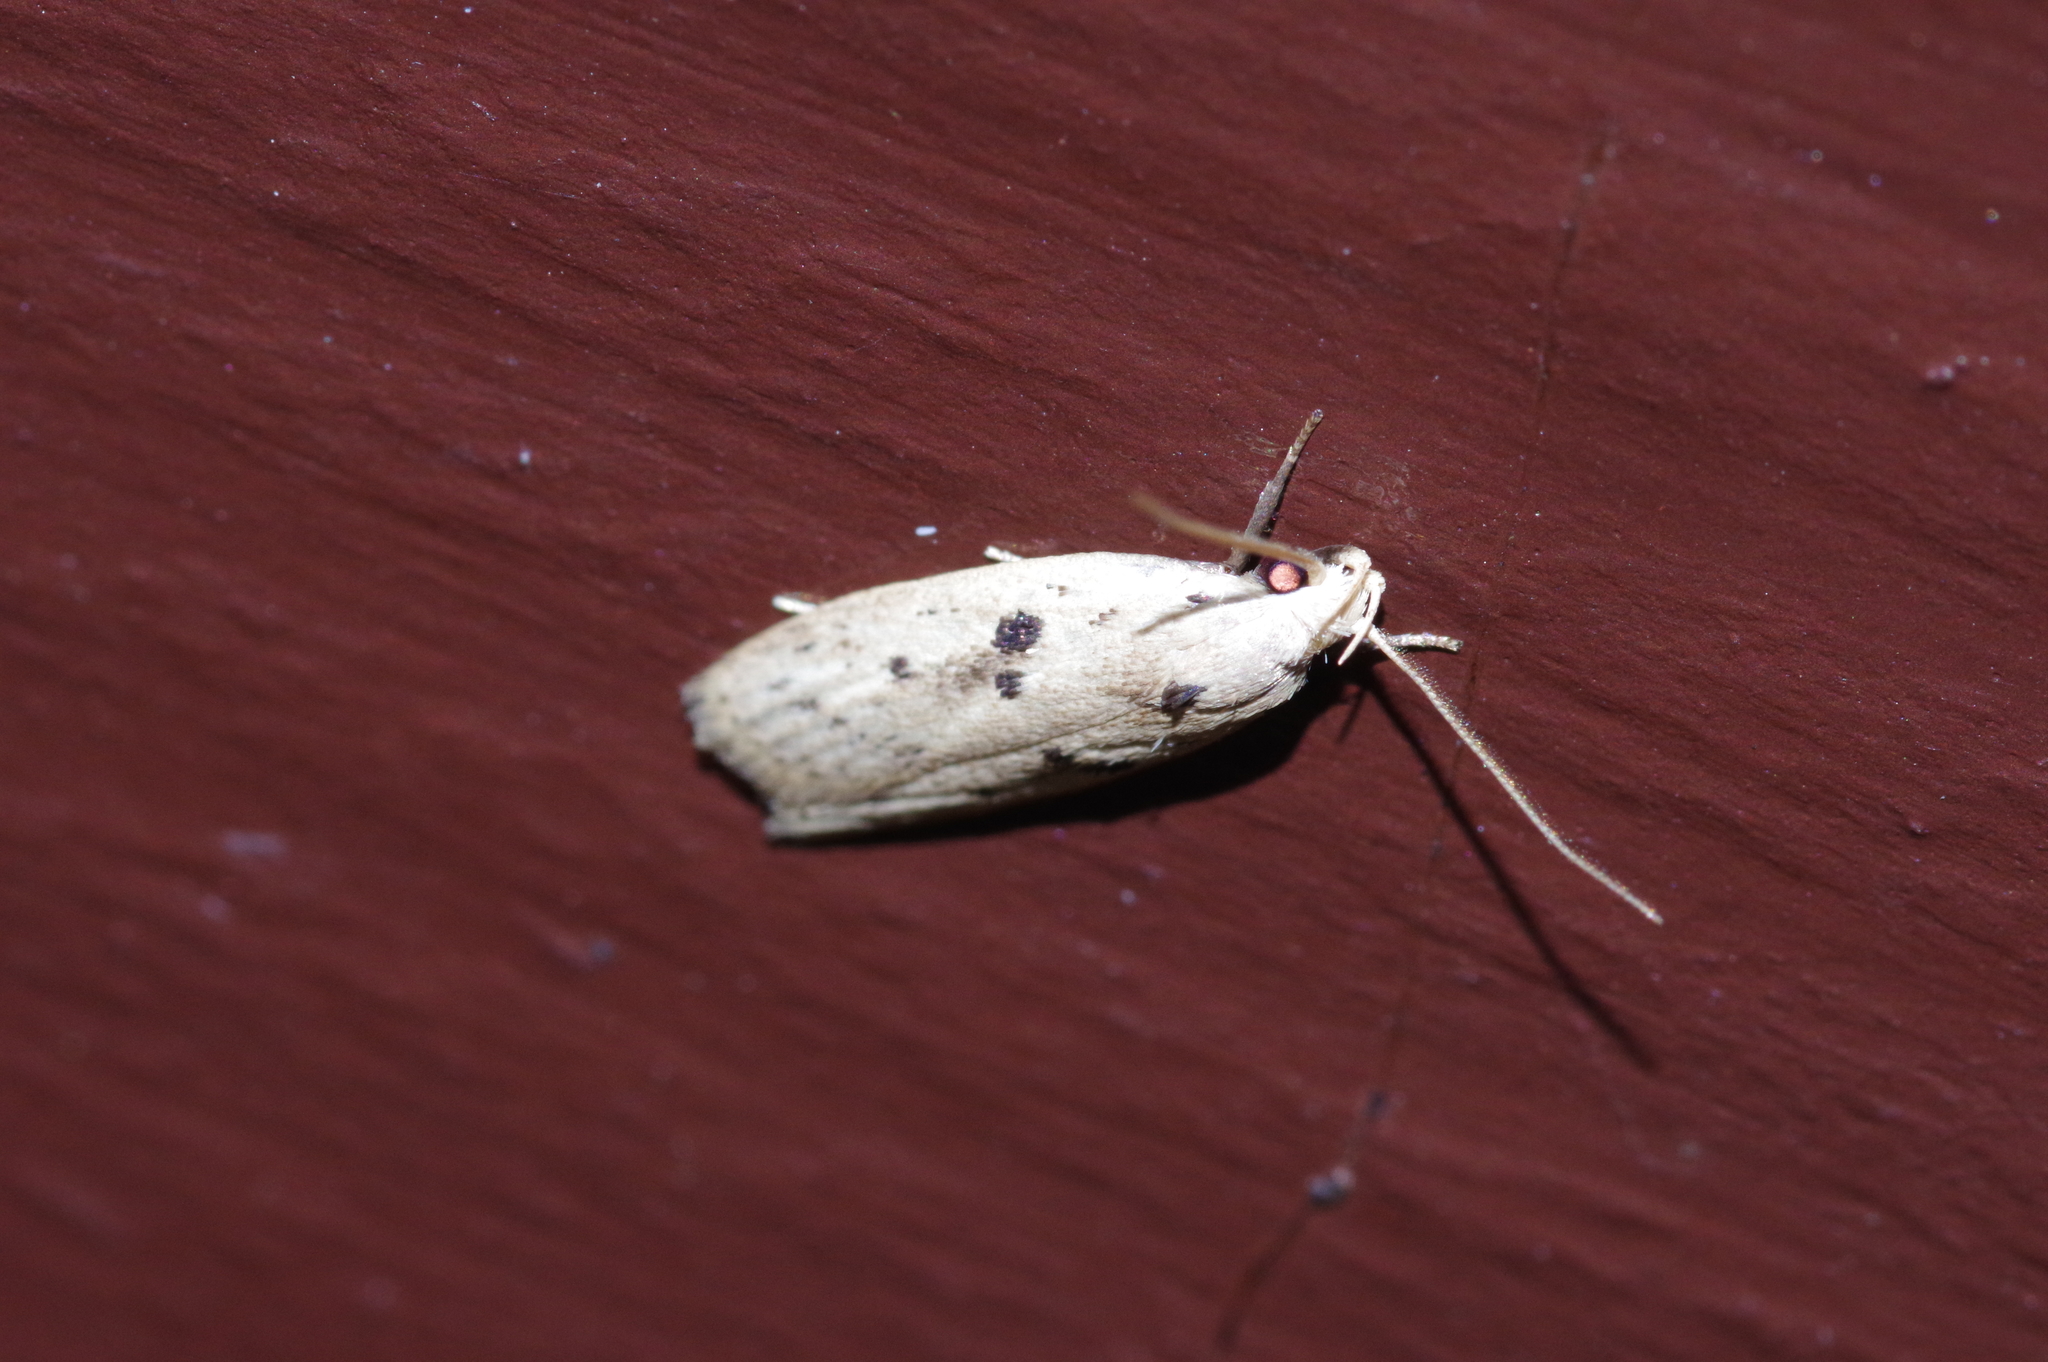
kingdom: Animalia
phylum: Arthropoda
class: Insecta
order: Lepidoptera
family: Peleopodidae
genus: Scythropiodes
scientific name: Scythropiodes issikii
